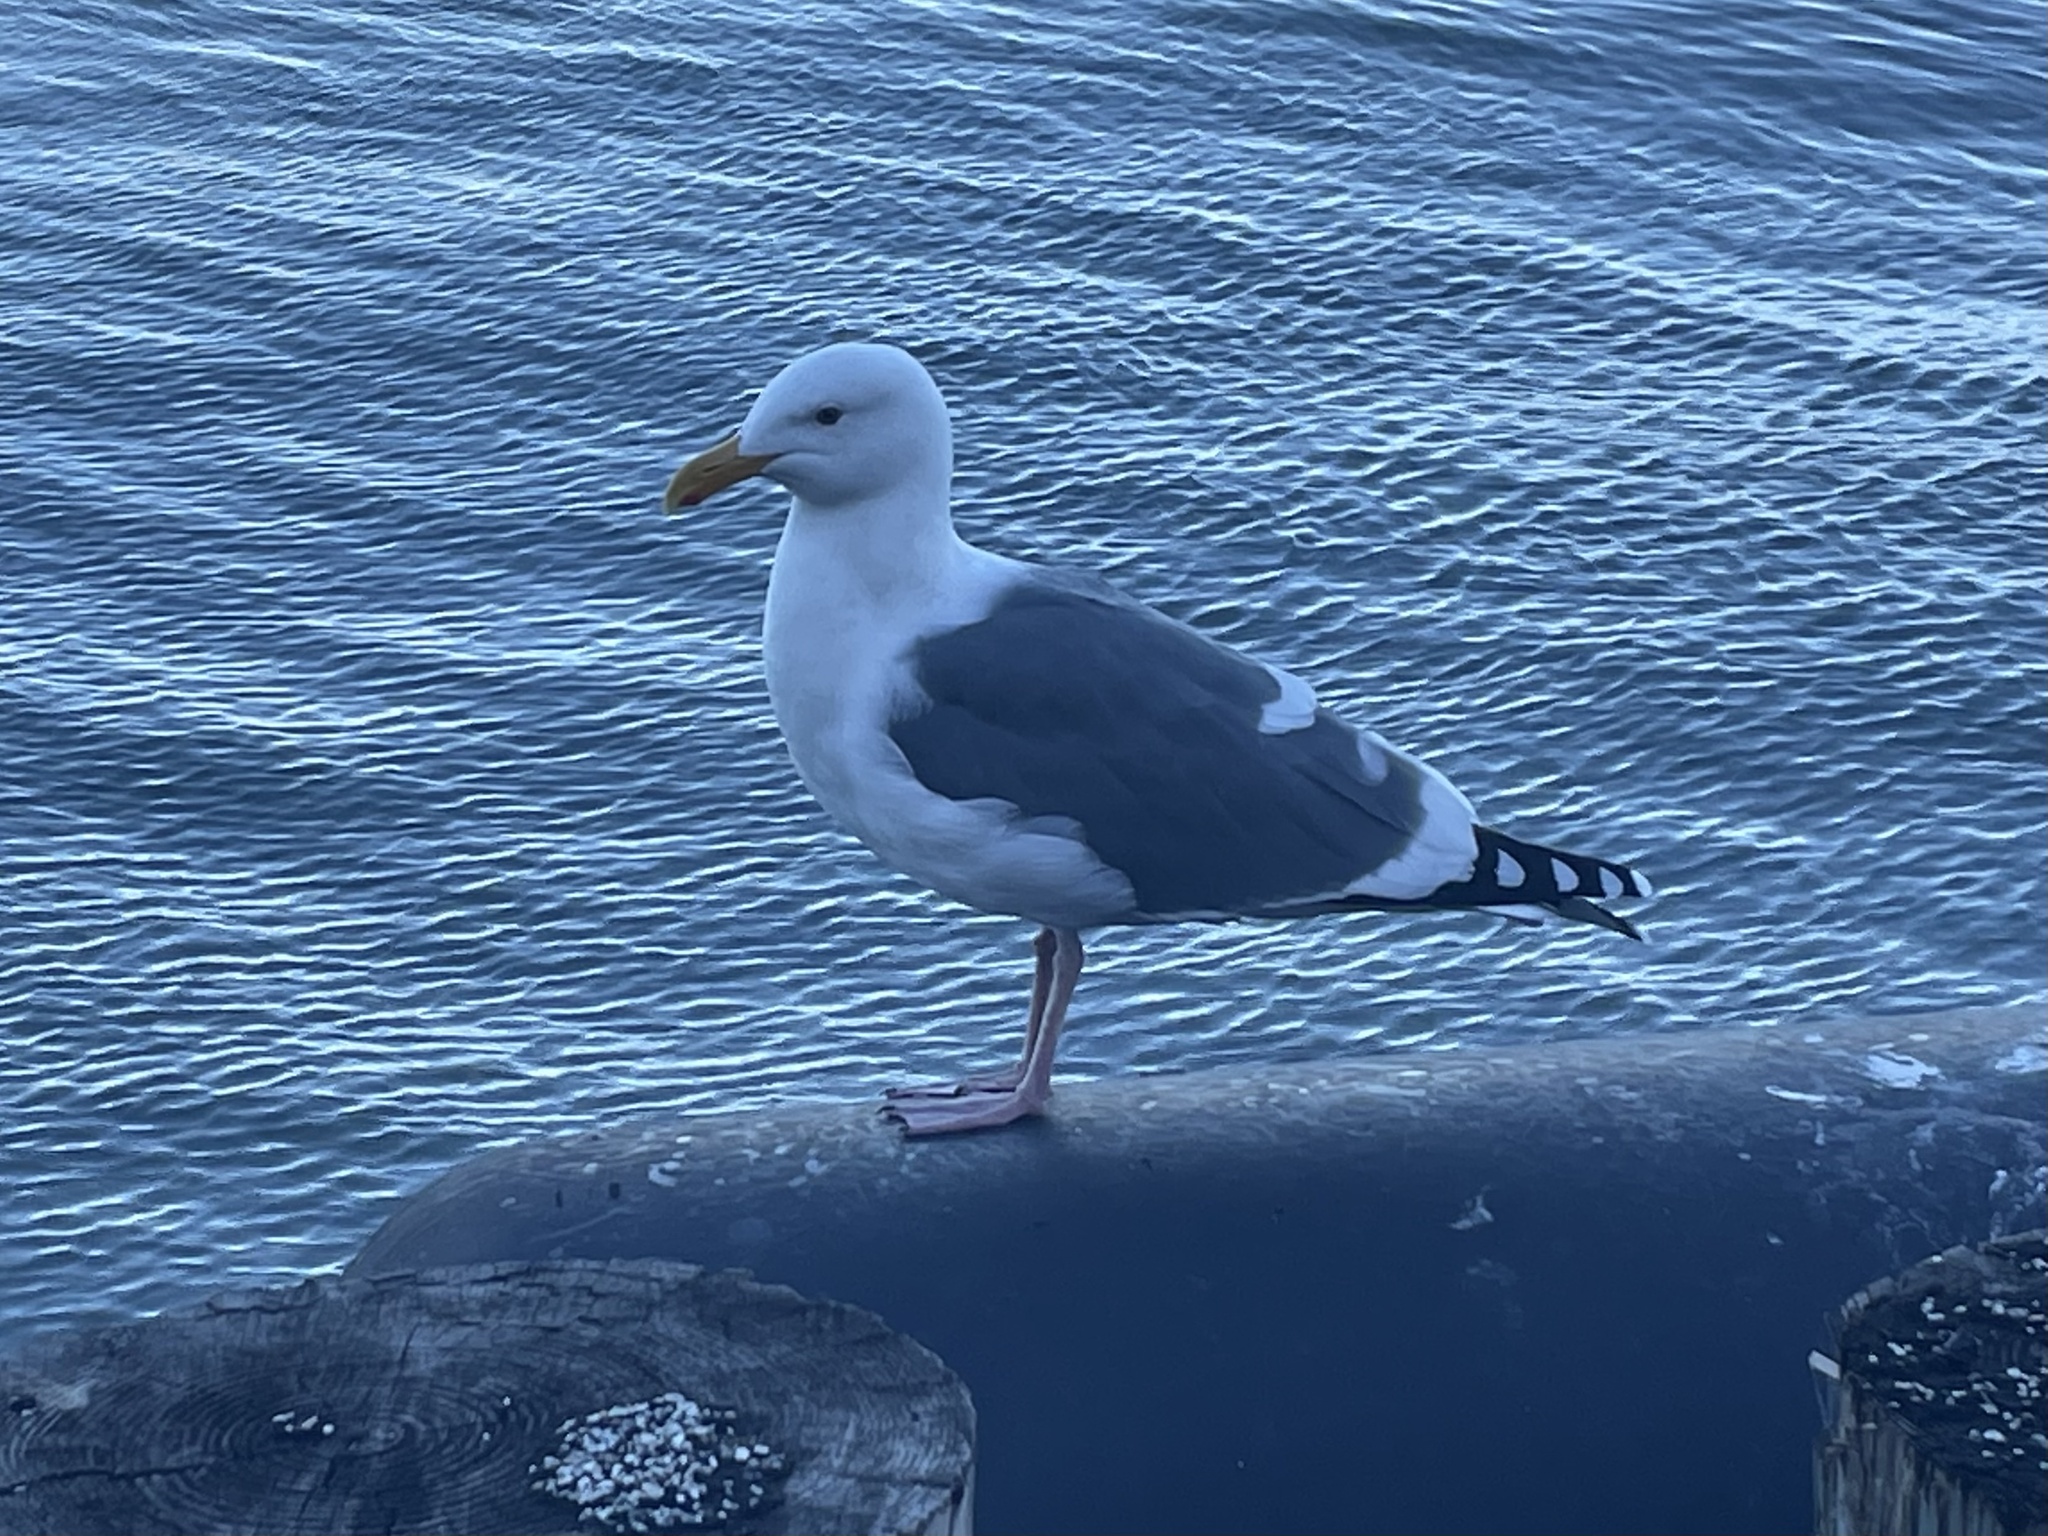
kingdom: Animalia
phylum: Chordata
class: Aves
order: Charadriiformes
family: Laridae
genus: Larus
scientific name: Larus occidentalis
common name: Western gull
